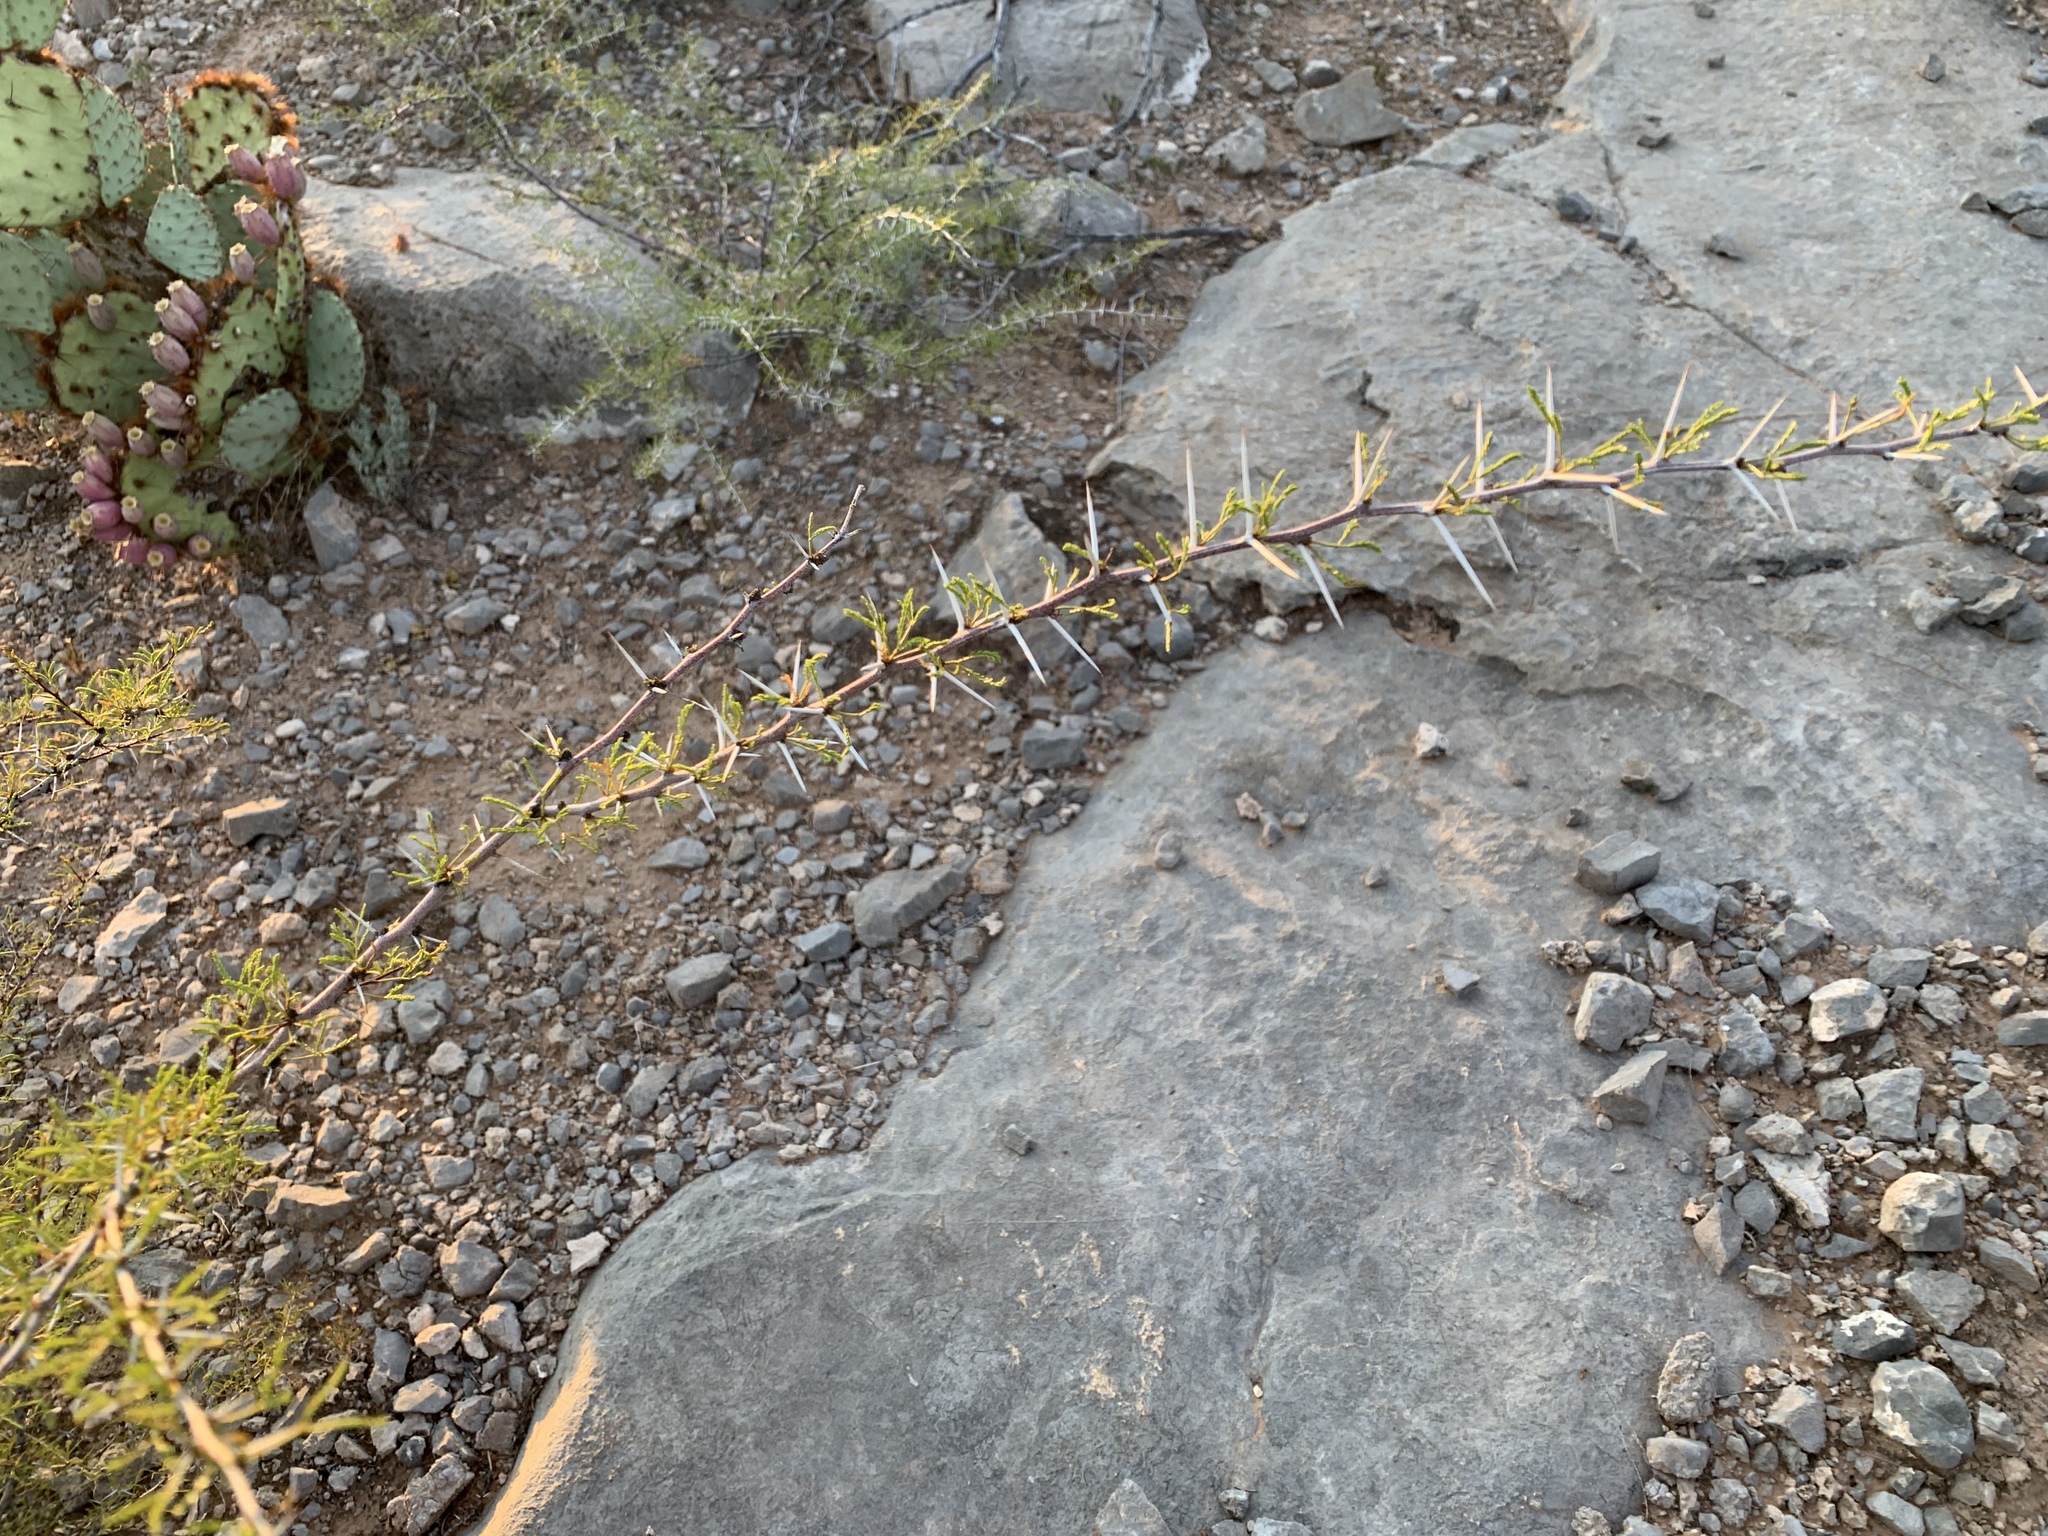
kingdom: Plantae
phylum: Tracheophyta
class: Magnoliopsida
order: Fabales
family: Fabaceae
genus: Vachellia
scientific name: Vachellia constricta
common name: Mescat acacia
